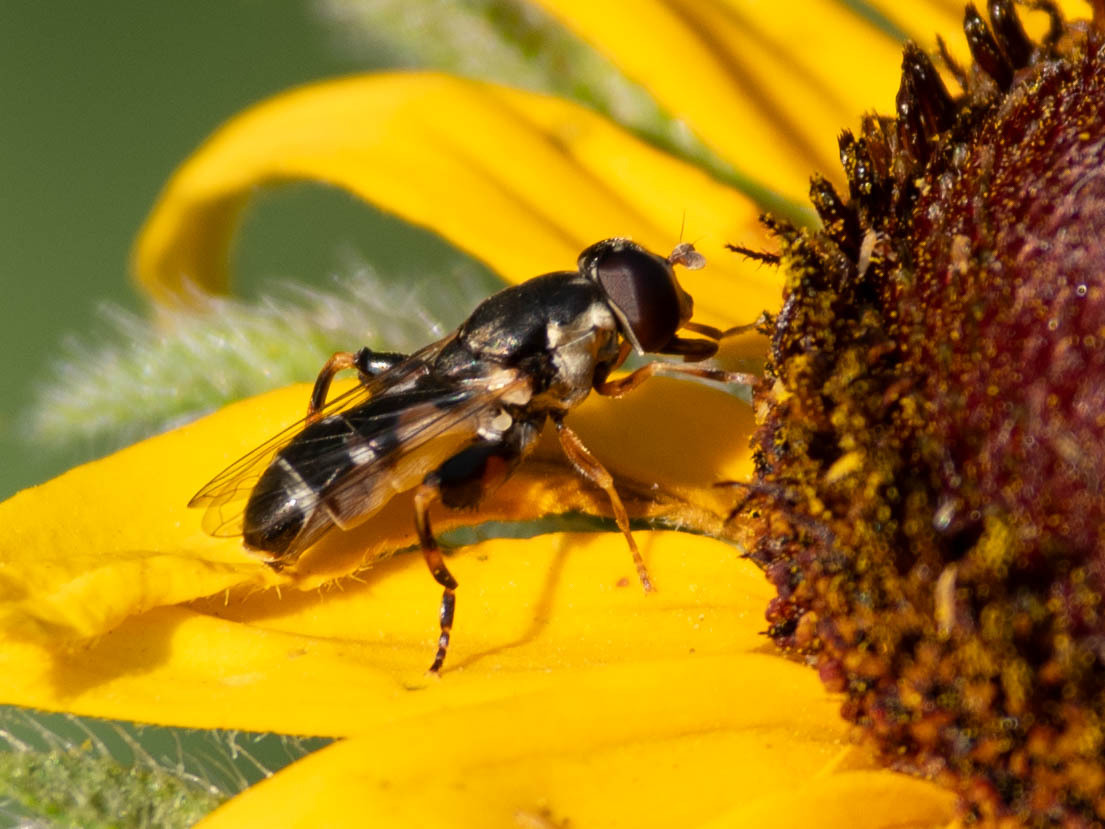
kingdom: Animalia
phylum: Arthropoda
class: Insecta
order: Diptera
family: Syrphidae
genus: Syritta
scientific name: Syritta pipiens
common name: Hover fly
